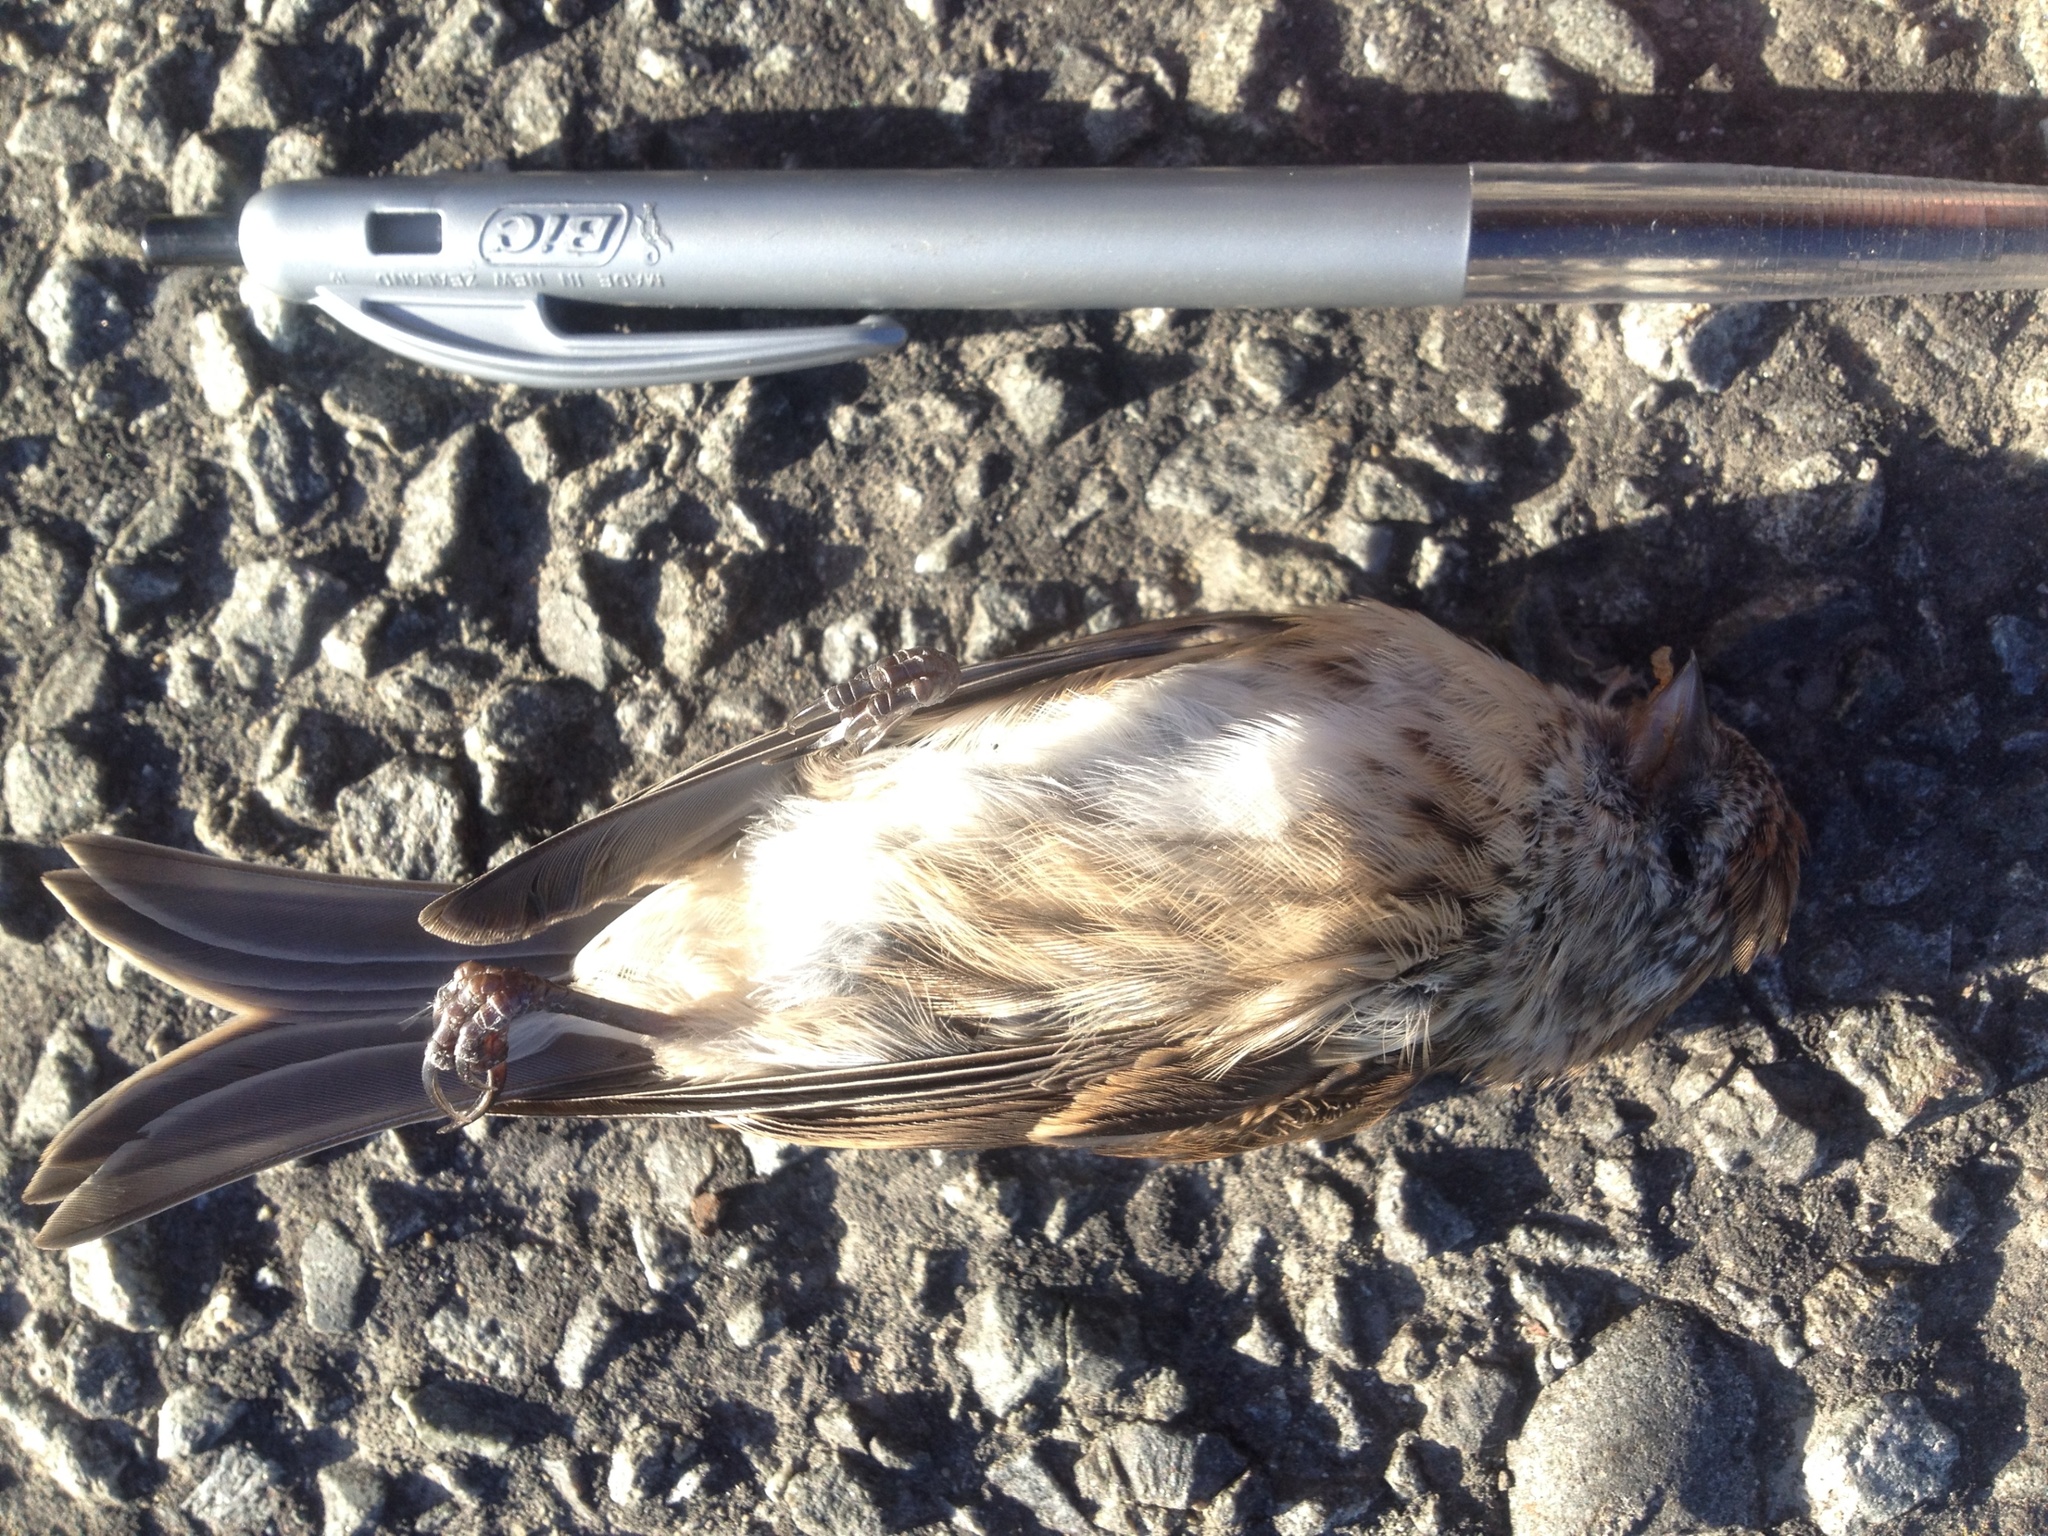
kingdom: Animalia
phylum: Chordata
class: Aves
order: Passeriformes
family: Fringillidae
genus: Acanthis
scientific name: Acanthis flammea
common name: Common redpoll
